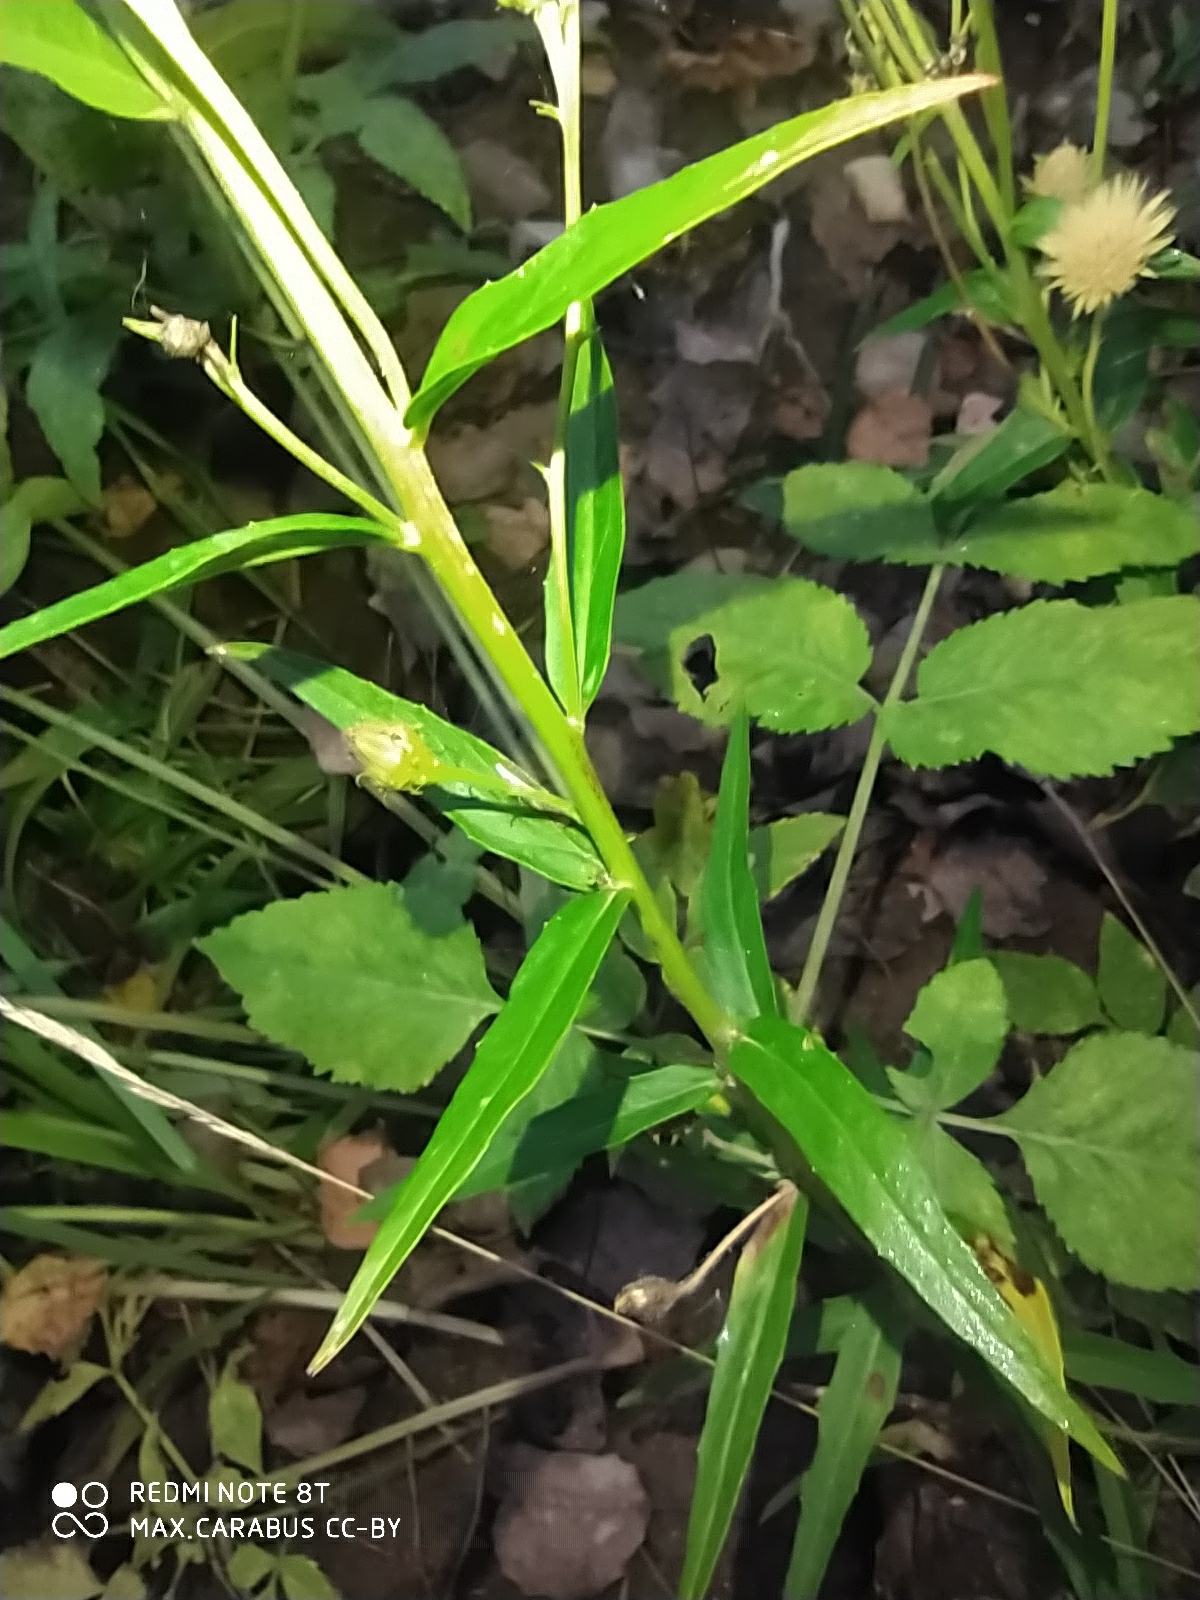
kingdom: Plantae
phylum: Tracheophyta
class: Magnoliopsida
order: Asterales
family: Asteraceae
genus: Hieracium
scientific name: Hieracium umbellatum
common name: Northern hawkweed
